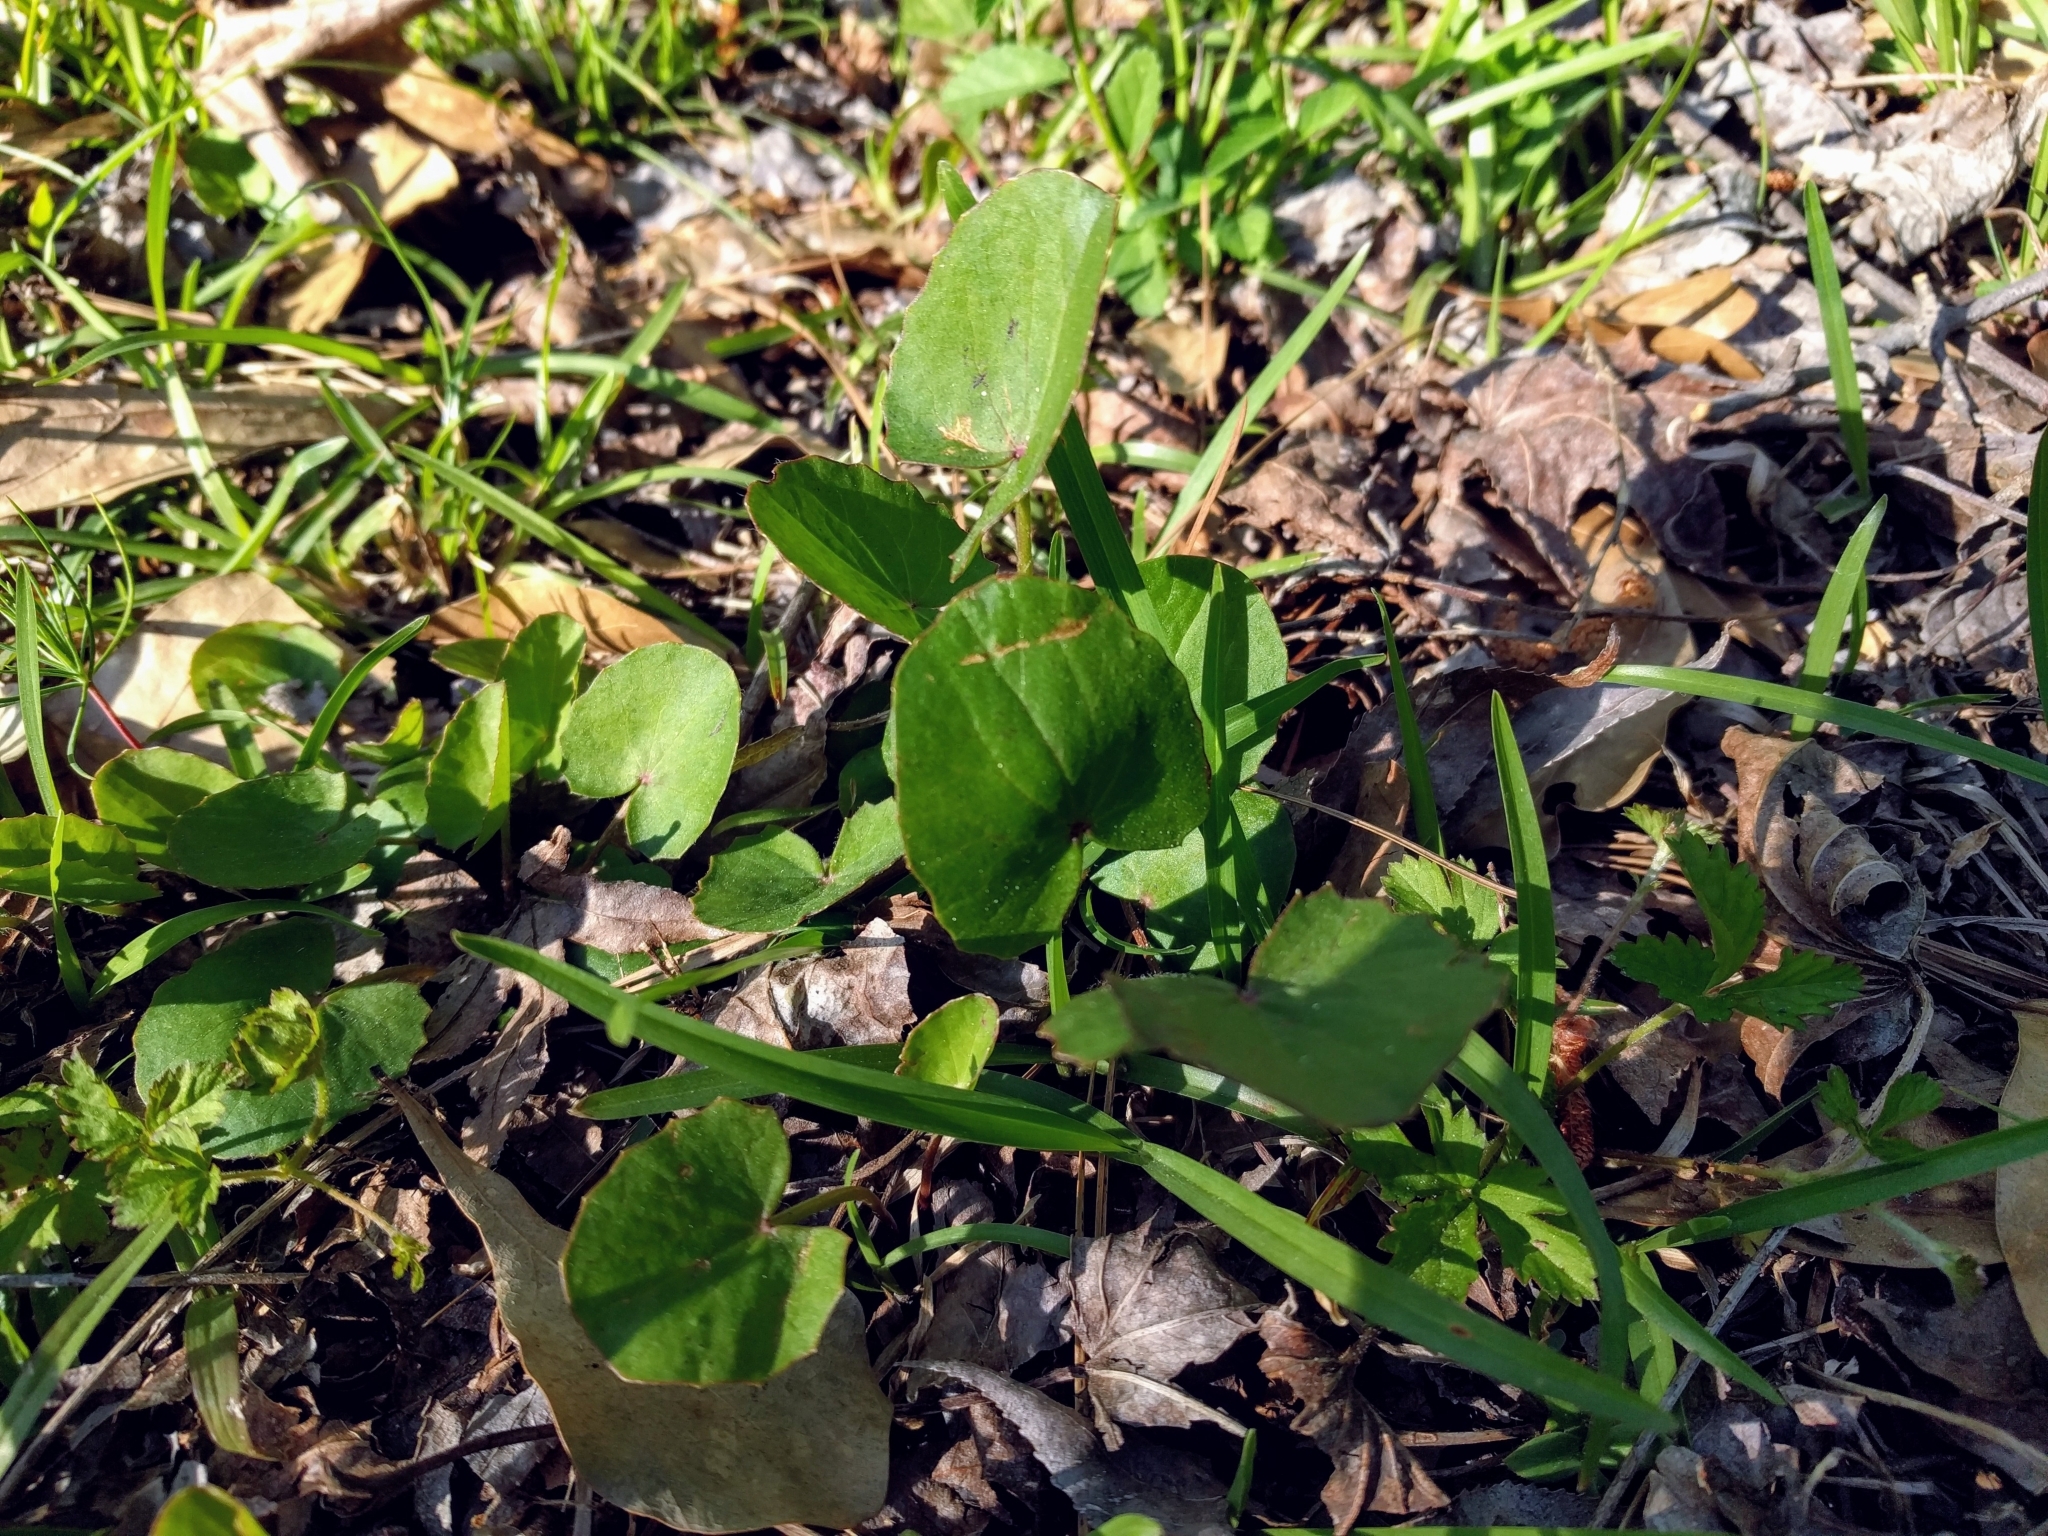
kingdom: Plantae
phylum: Tracheophyta
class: Magnoliopsida
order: Apiales
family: Apiaceae
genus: Centella
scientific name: Centella erecta
